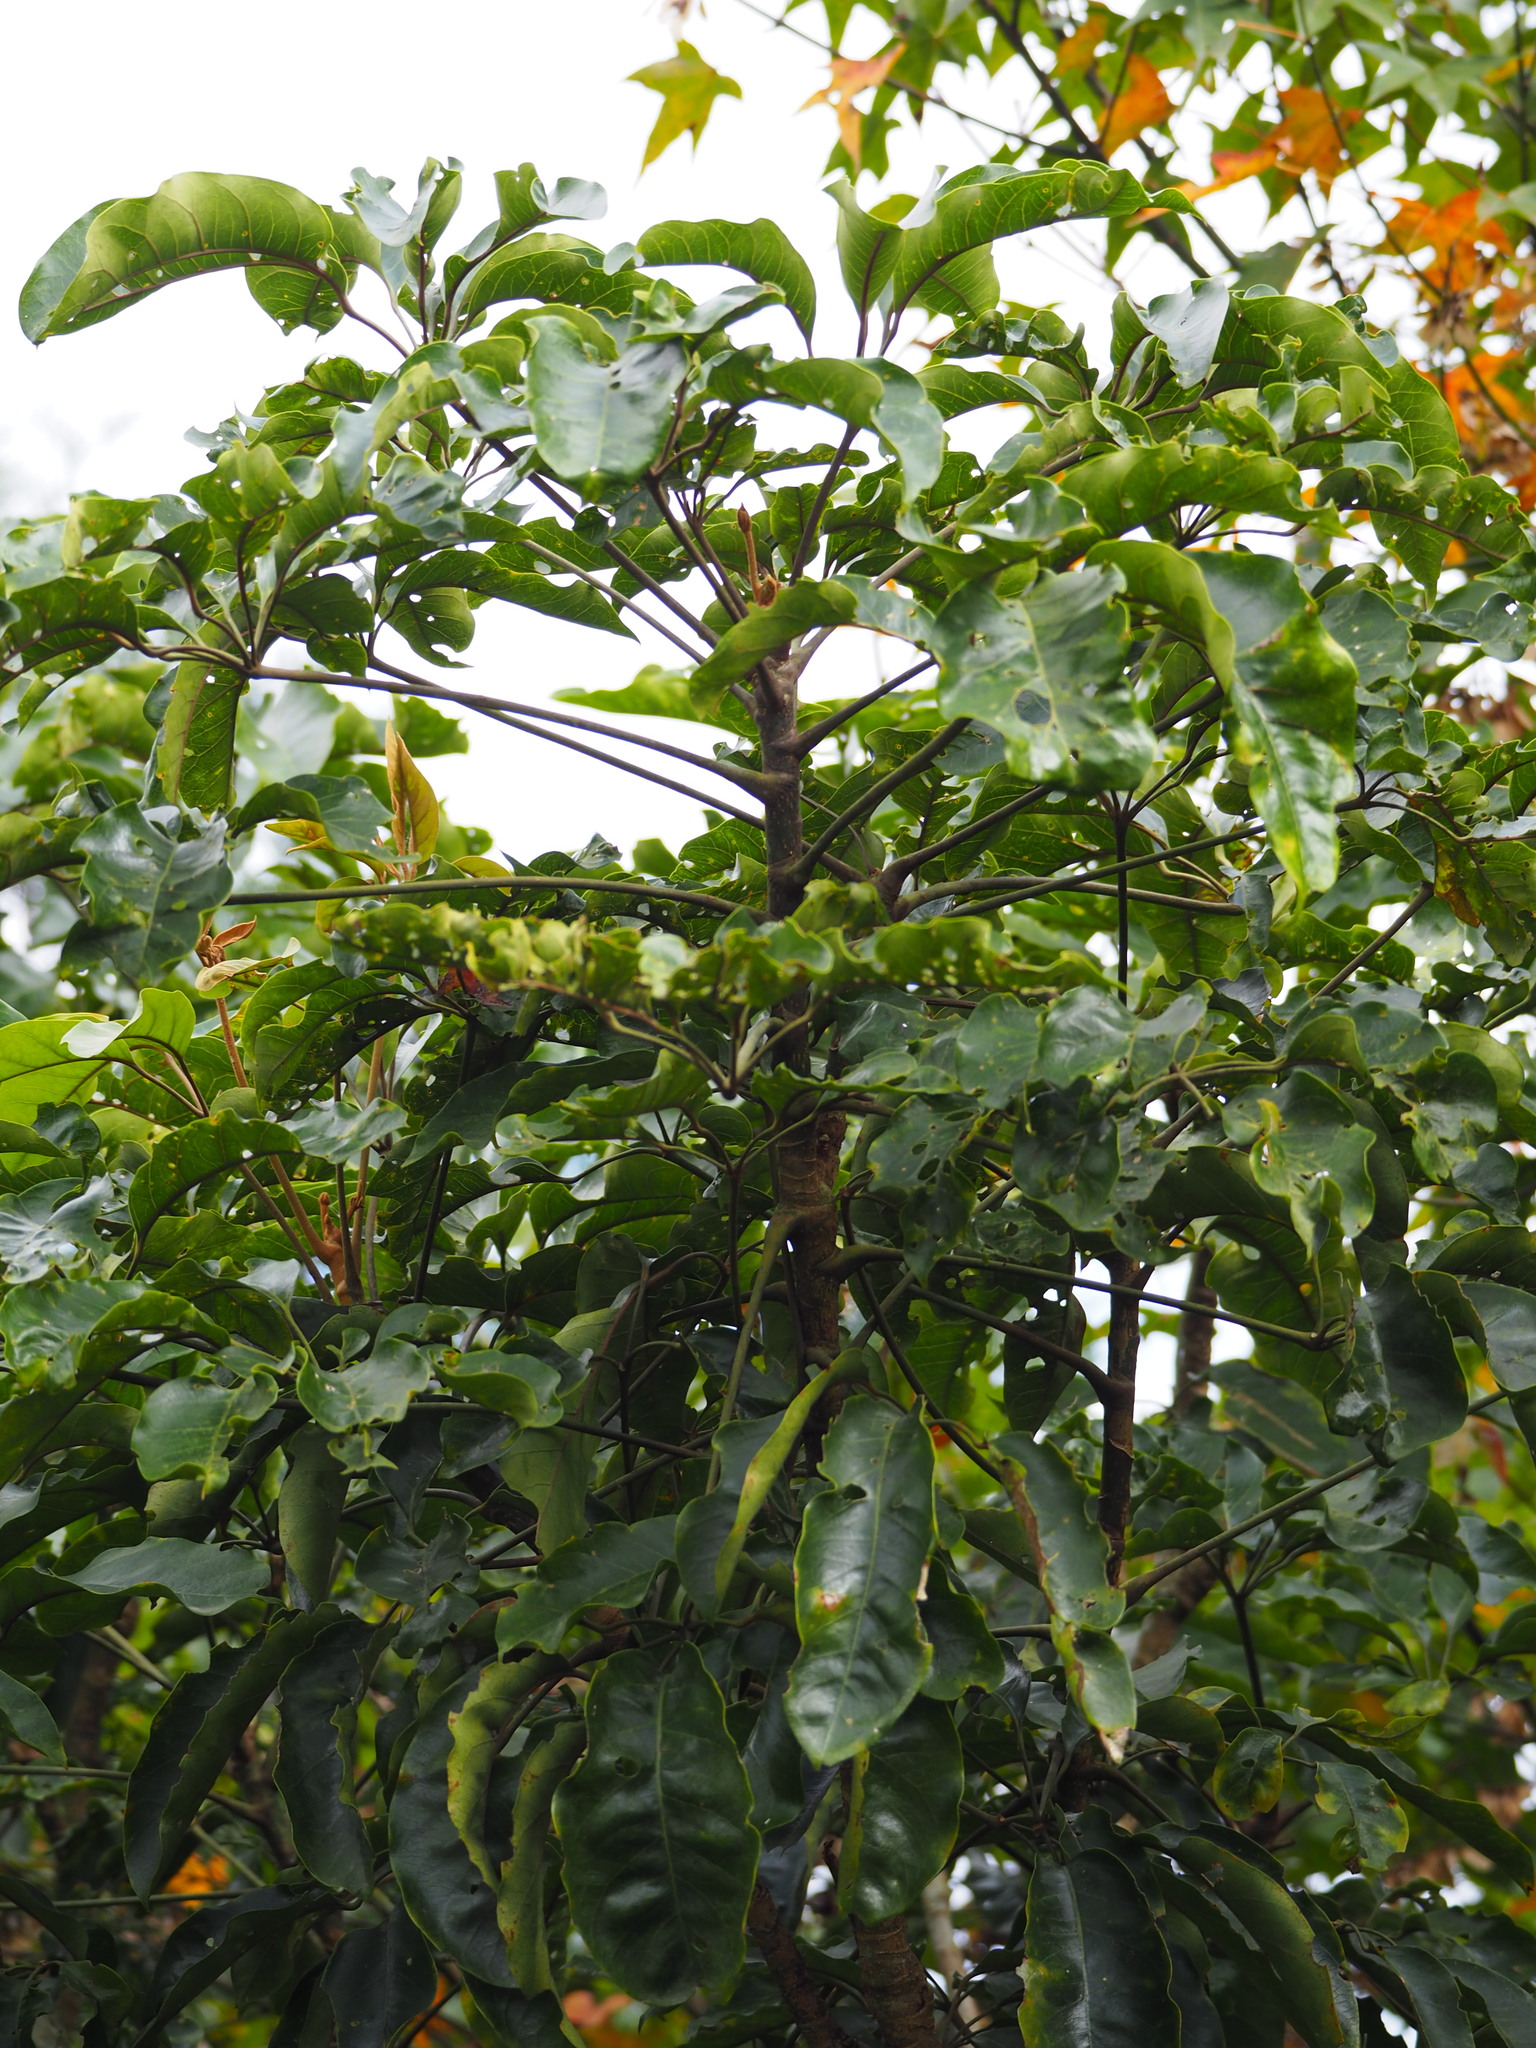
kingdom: Plantae
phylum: Tracheophyta
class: Magnoliopsida
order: Apiales
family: Araliaceae
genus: Heptapleurum
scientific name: Heptapleurum heptaphyllum
